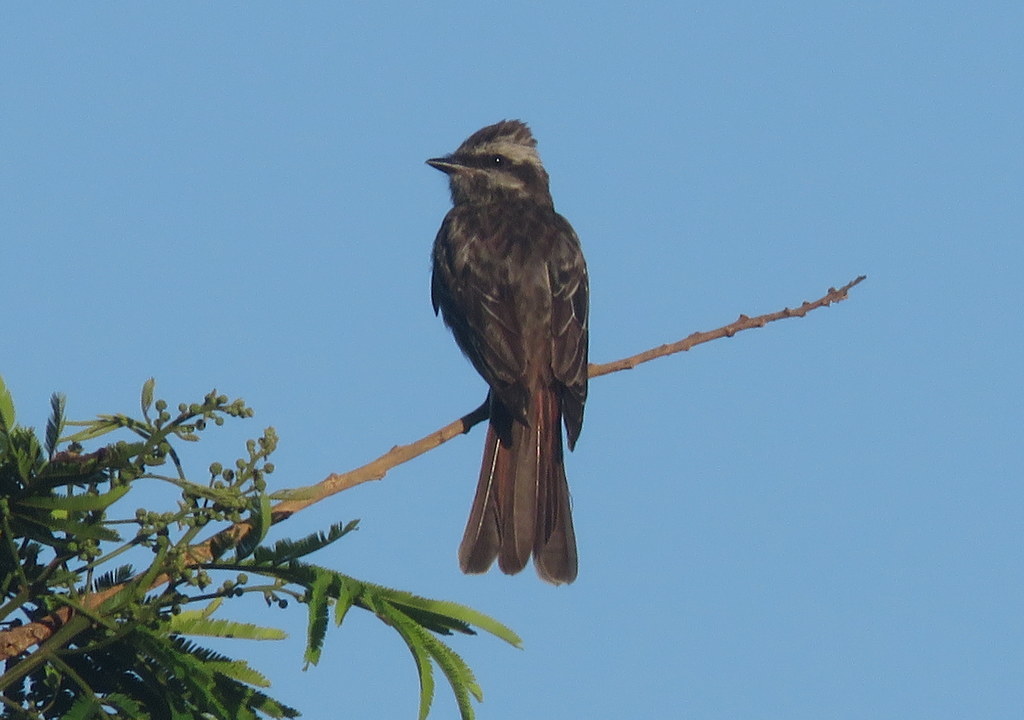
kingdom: Animalia
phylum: Chordata
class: Aves
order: Passeriformes
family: Tyrannidae
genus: Empidonomus
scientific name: Empidonomus varius
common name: Variegated flycatcher
